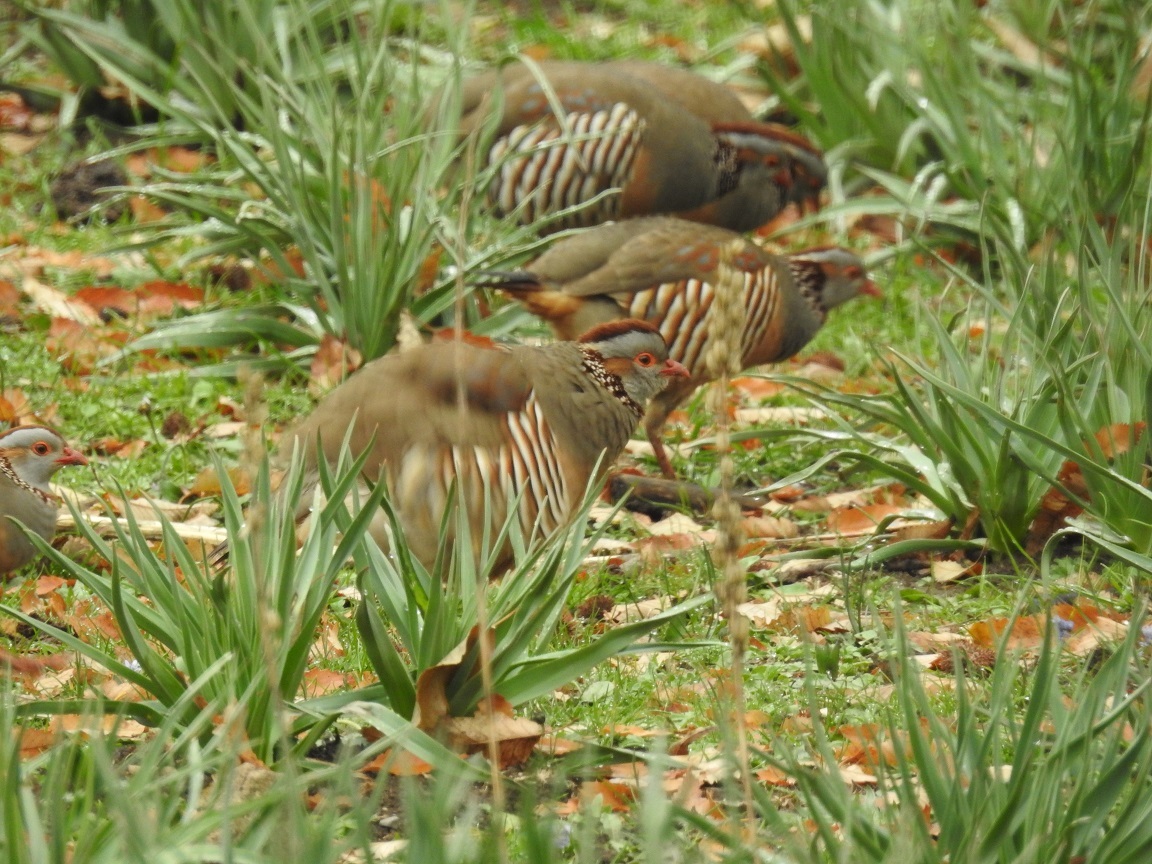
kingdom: Animalia
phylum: Chordata
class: Aves
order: Galliformes
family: Phasianidae
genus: Alectoris
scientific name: Alectoris barbara
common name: Barbary partridge
